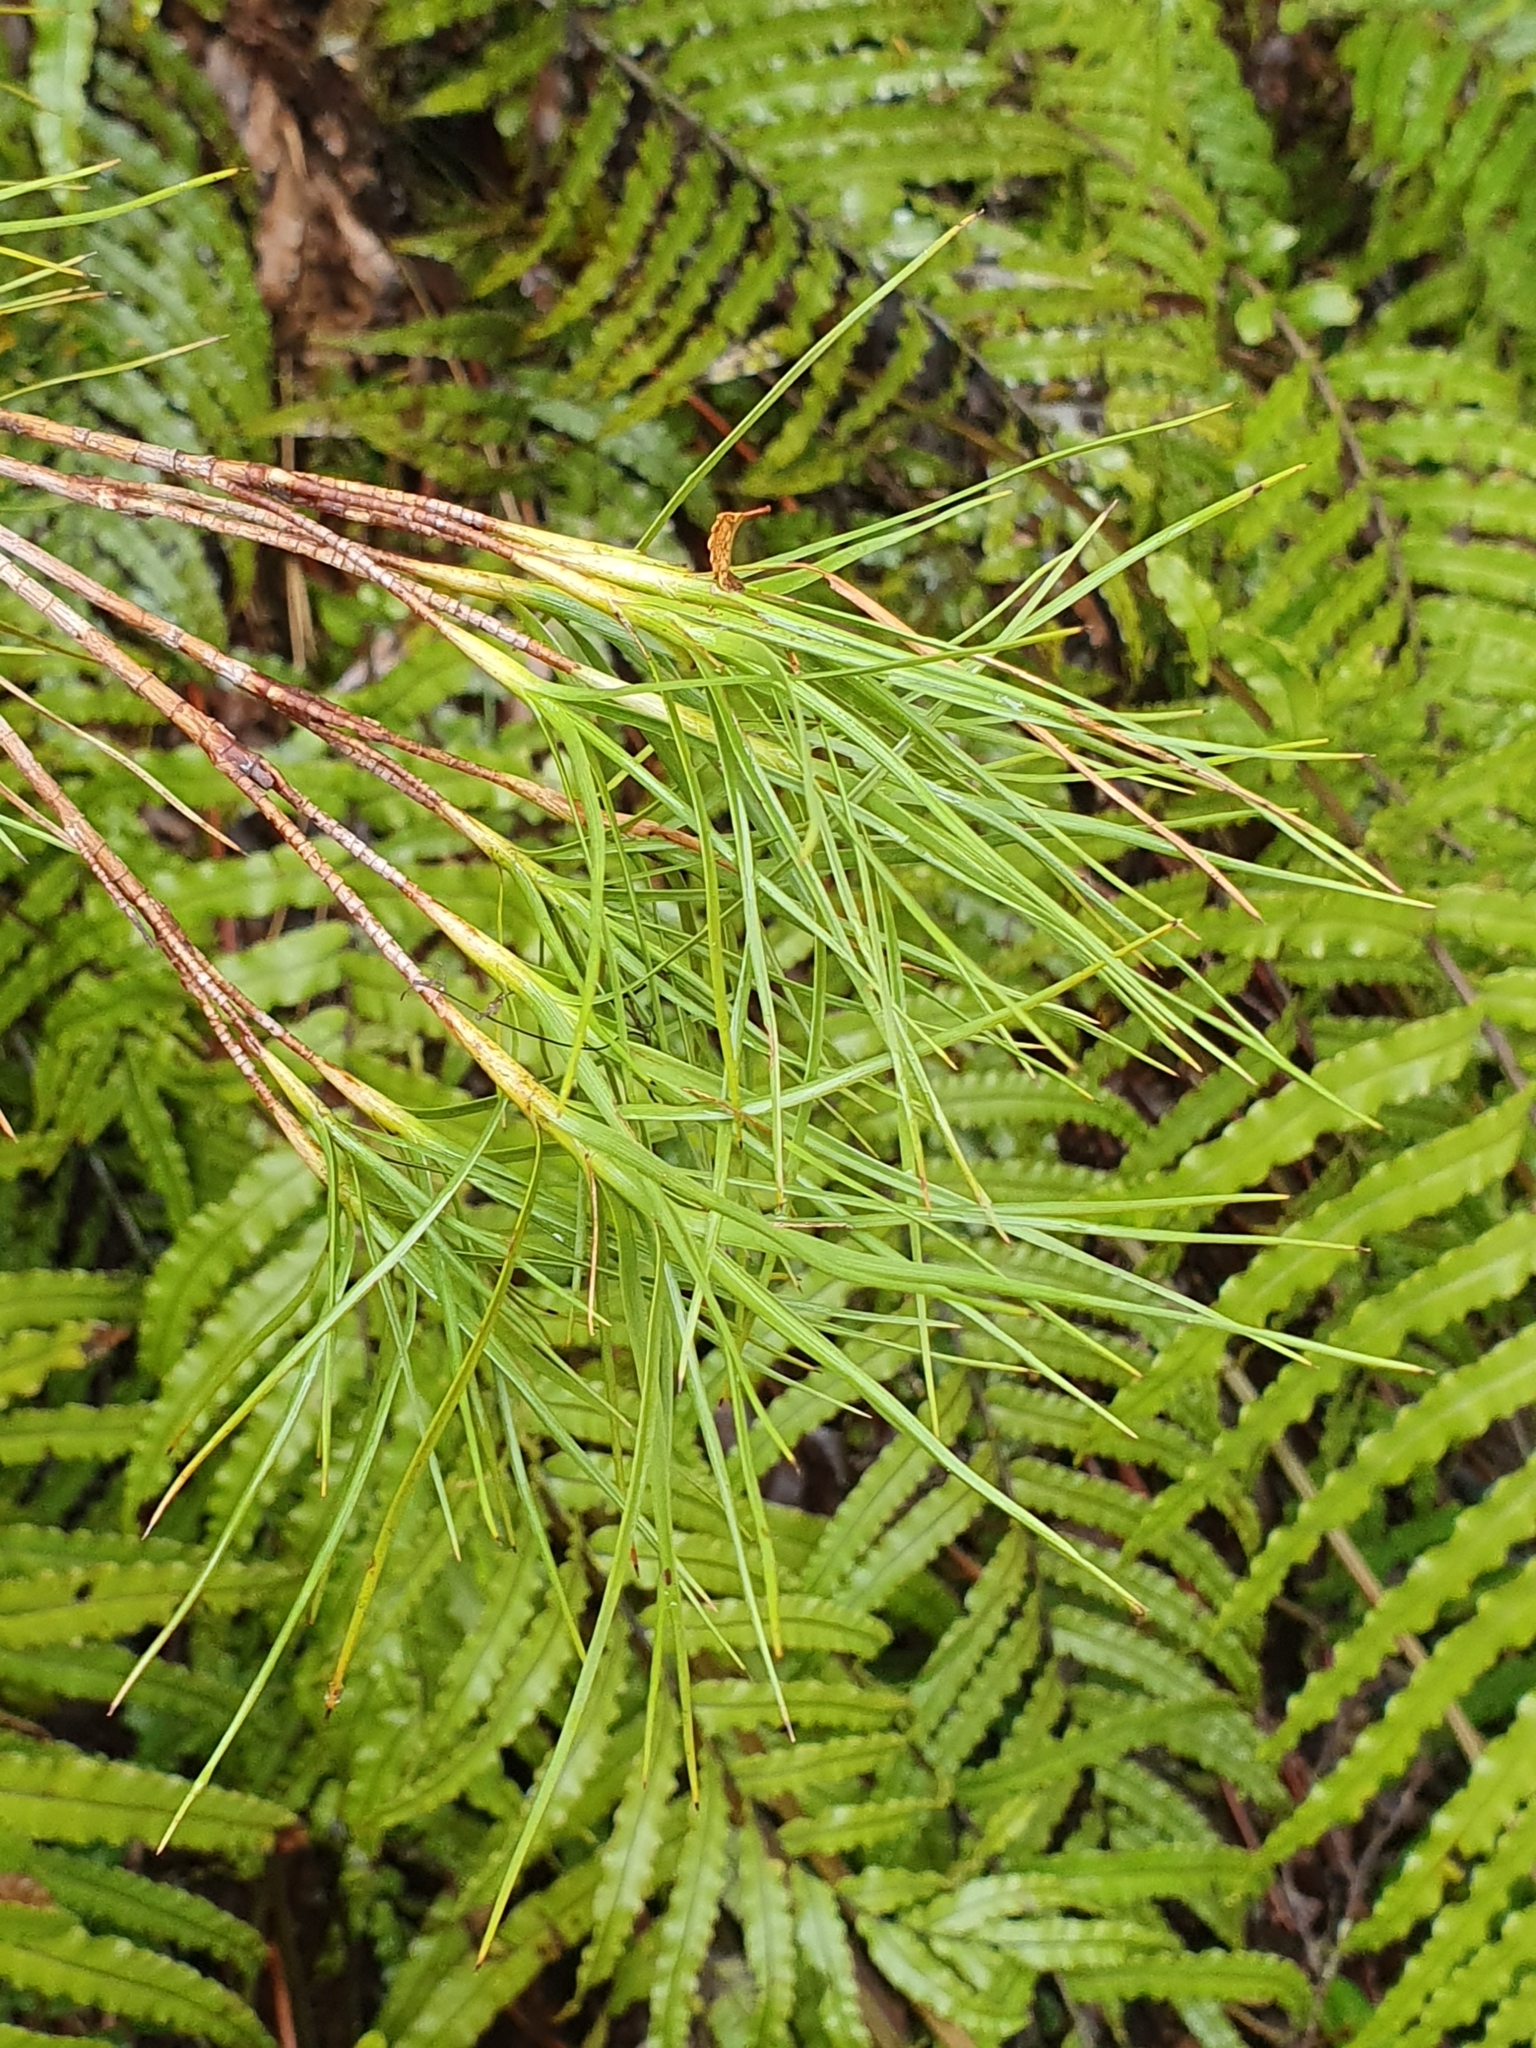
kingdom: Plantae
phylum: Tracheophyta
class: Magnoliopsida
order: Ericales
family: Ericaceae
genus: Dracophyllum
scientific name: Dracophyllum longifolium
